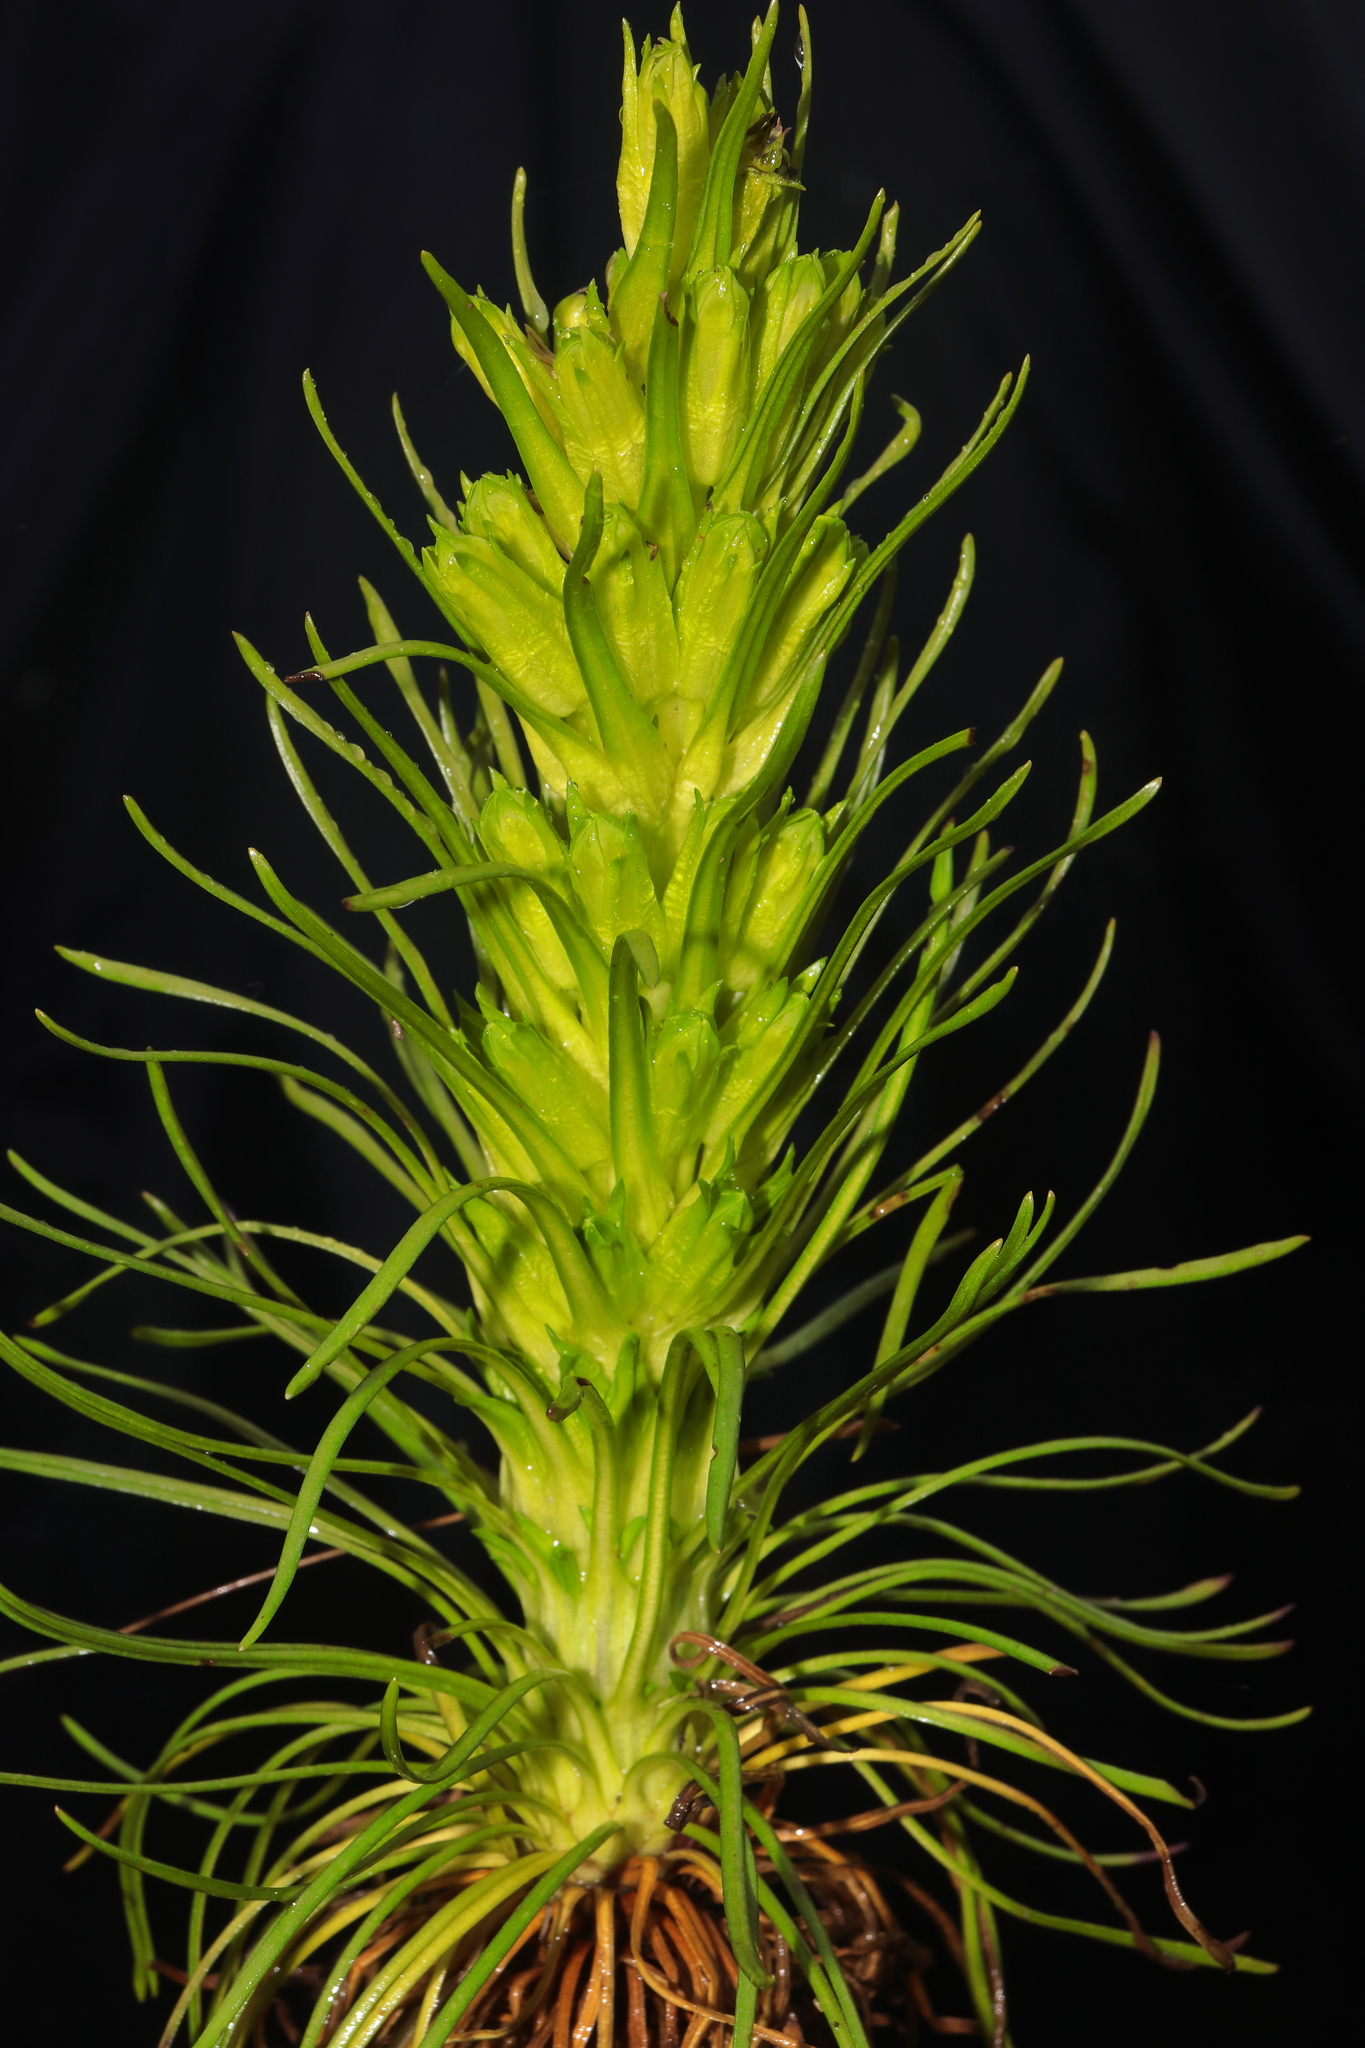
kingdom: Plantae
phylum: Tracheophyta
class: Magnoliopsida
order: Gentianales
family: Gentianaceae
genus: Gentianella
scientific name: Gentianella thyrsoidea
